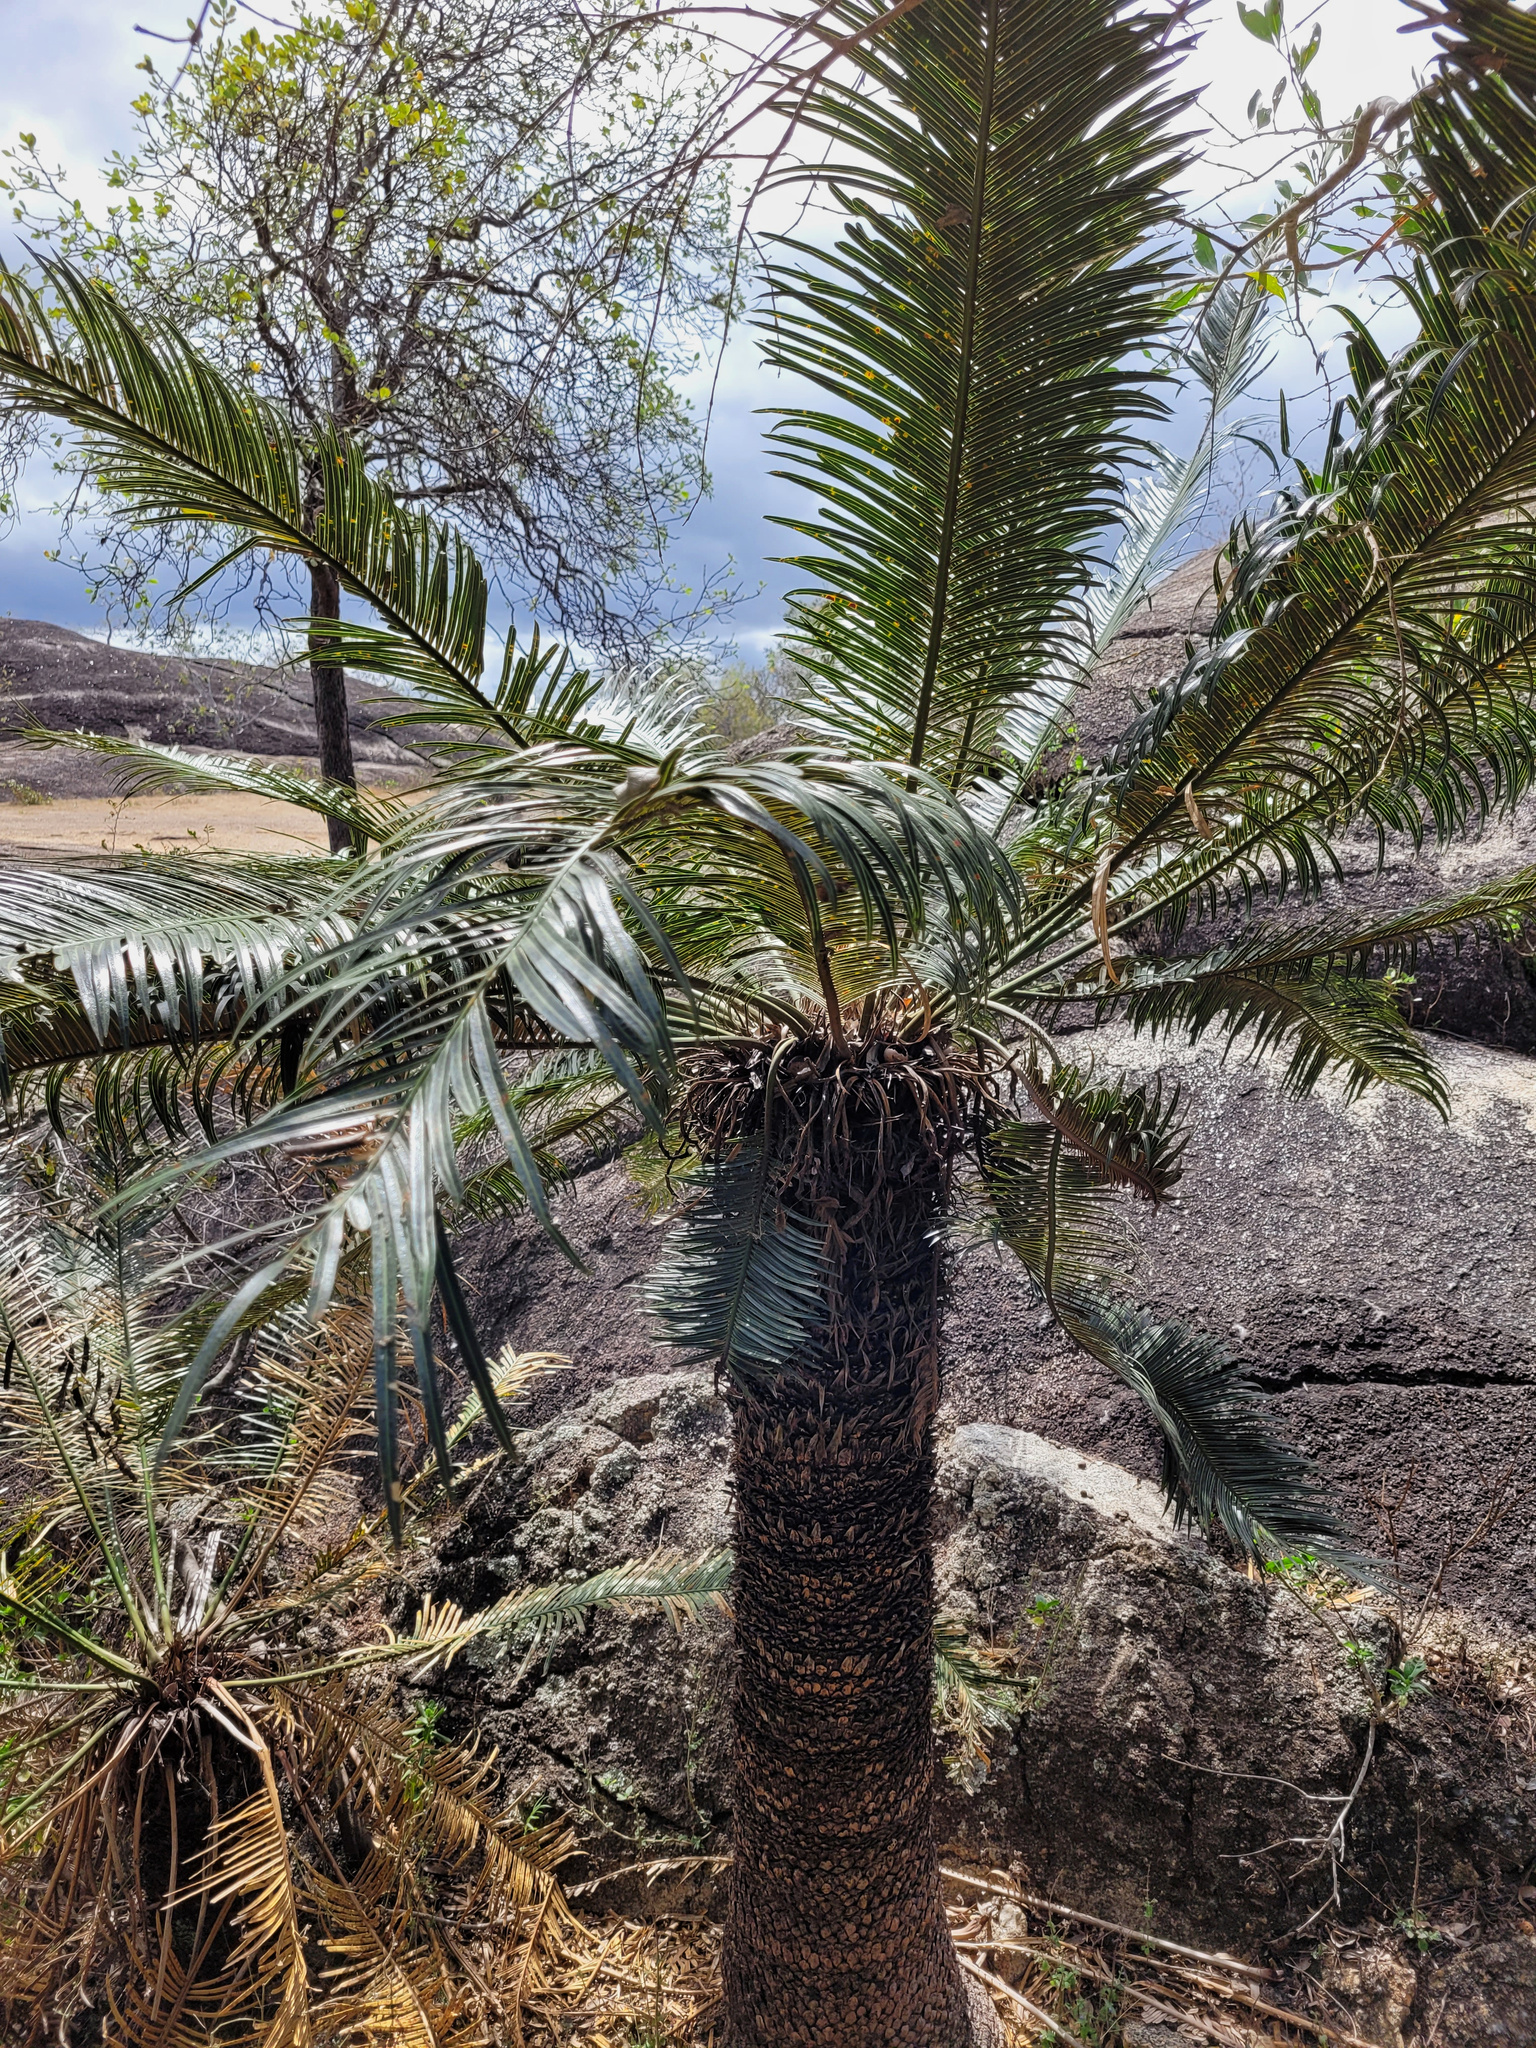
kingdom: Plantae
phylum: Tracheophyta
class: Cycadopsida
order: Cycadales
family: Cycadaceae
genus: Cycas
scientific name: Cycas media
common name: Queensland cycas
